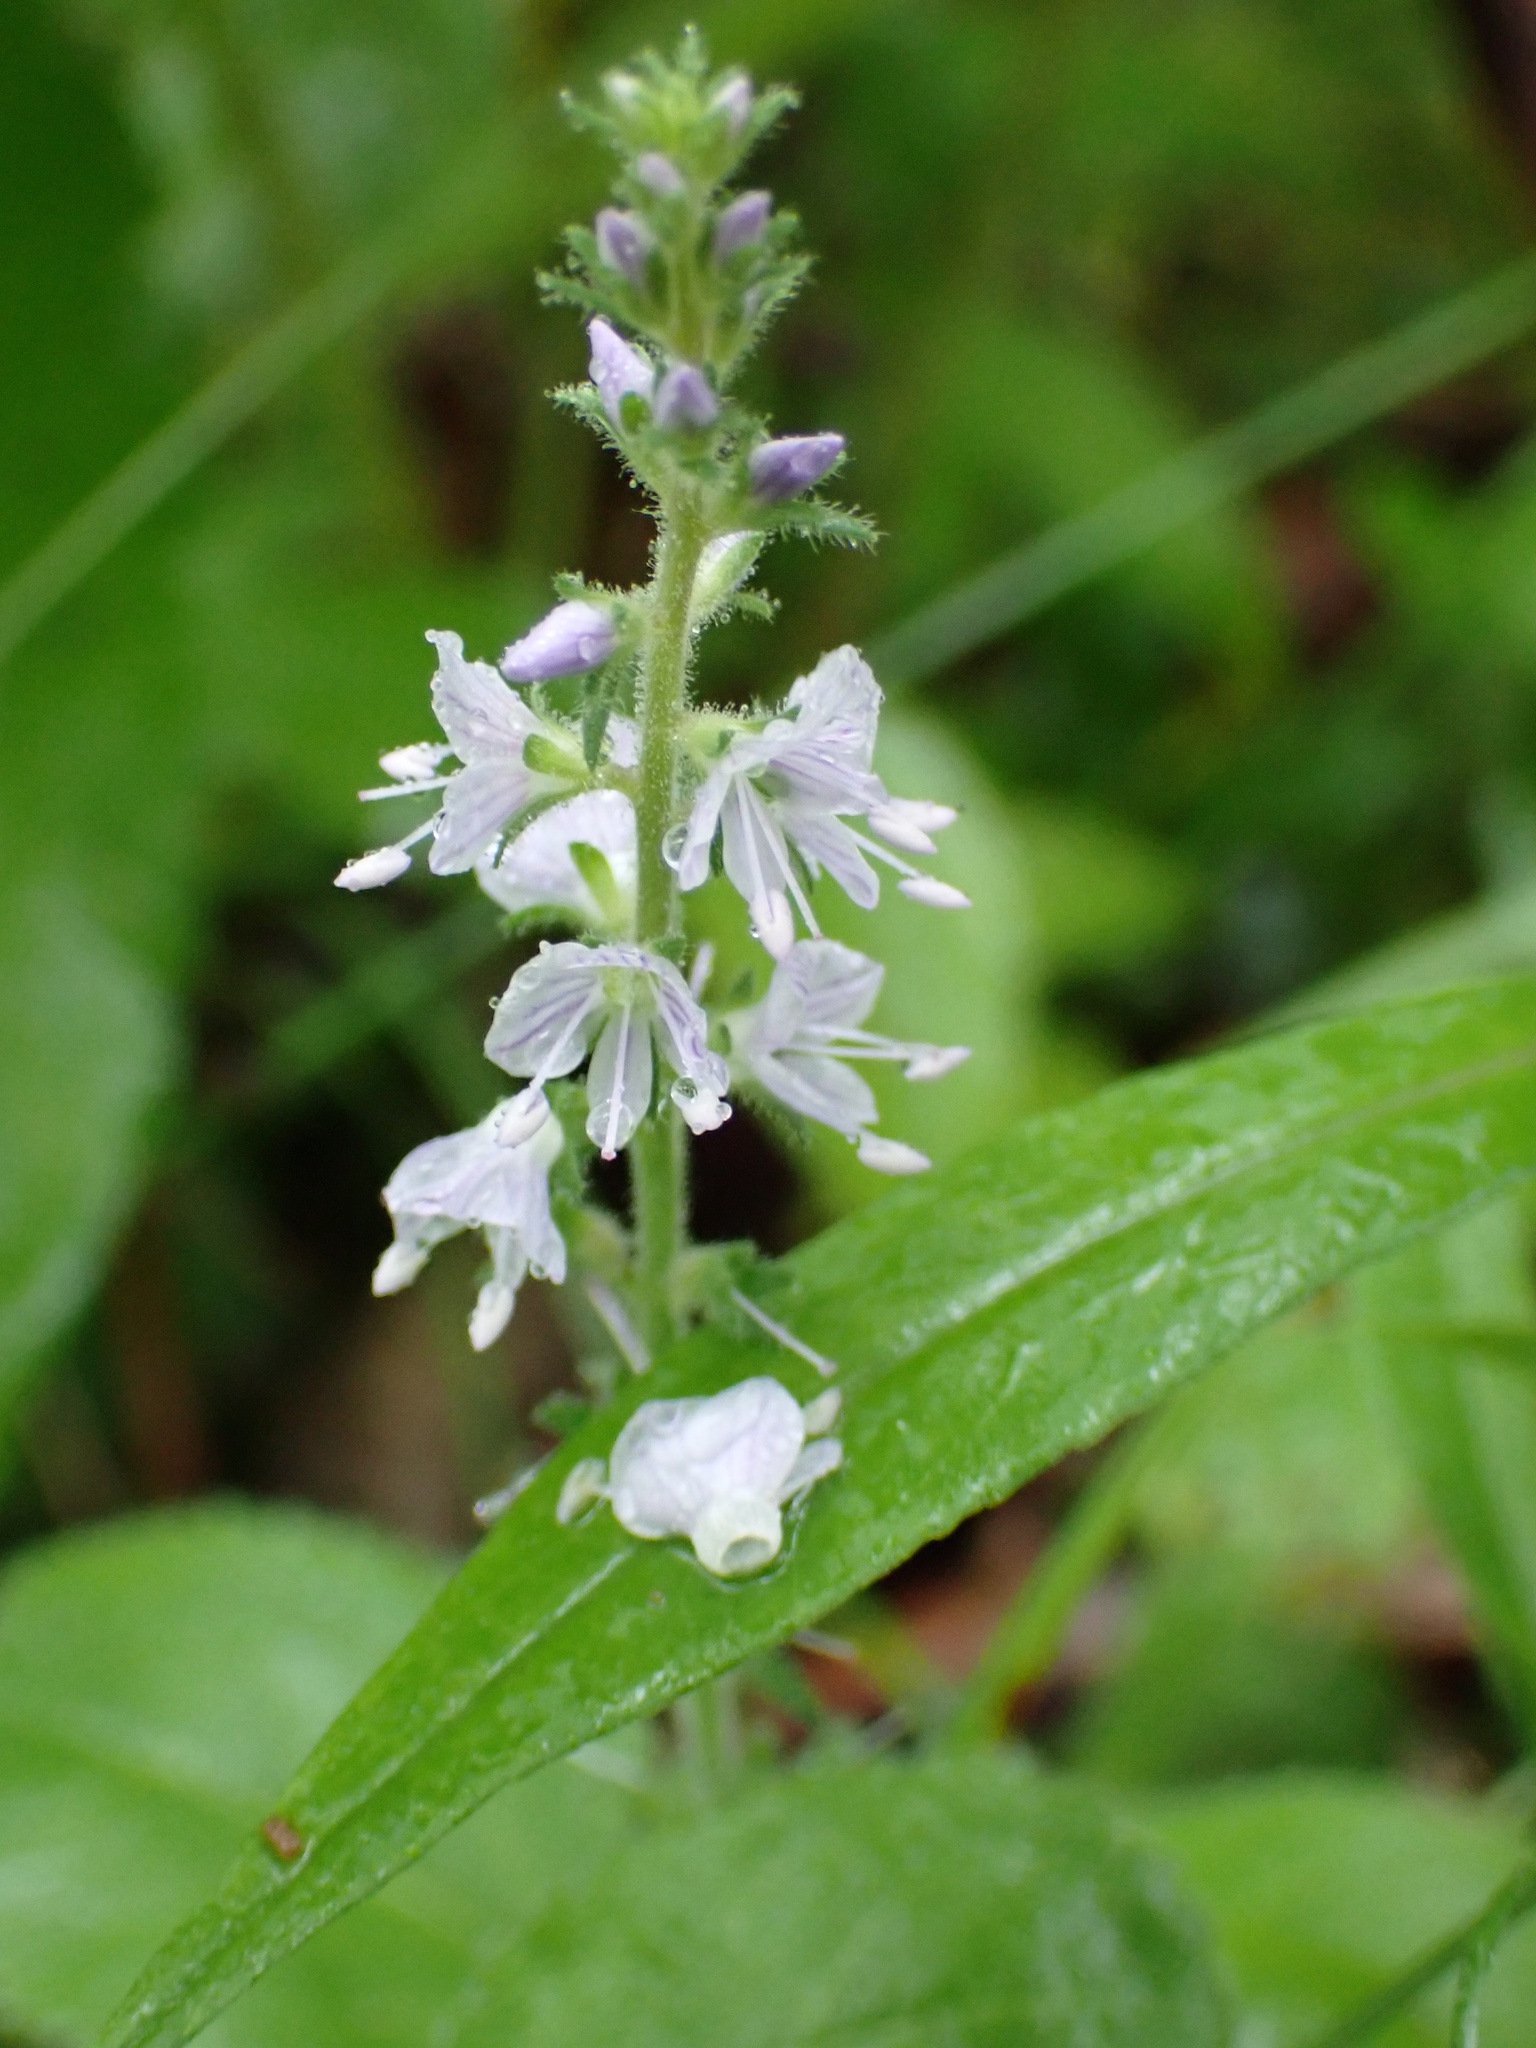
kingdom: Plantae
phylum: Tracheophyta
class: Magnoliopsida
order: Lamiales
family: Plantaginaceae
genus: Veronica
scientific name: Veronica officinalis
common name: Common speedwell
